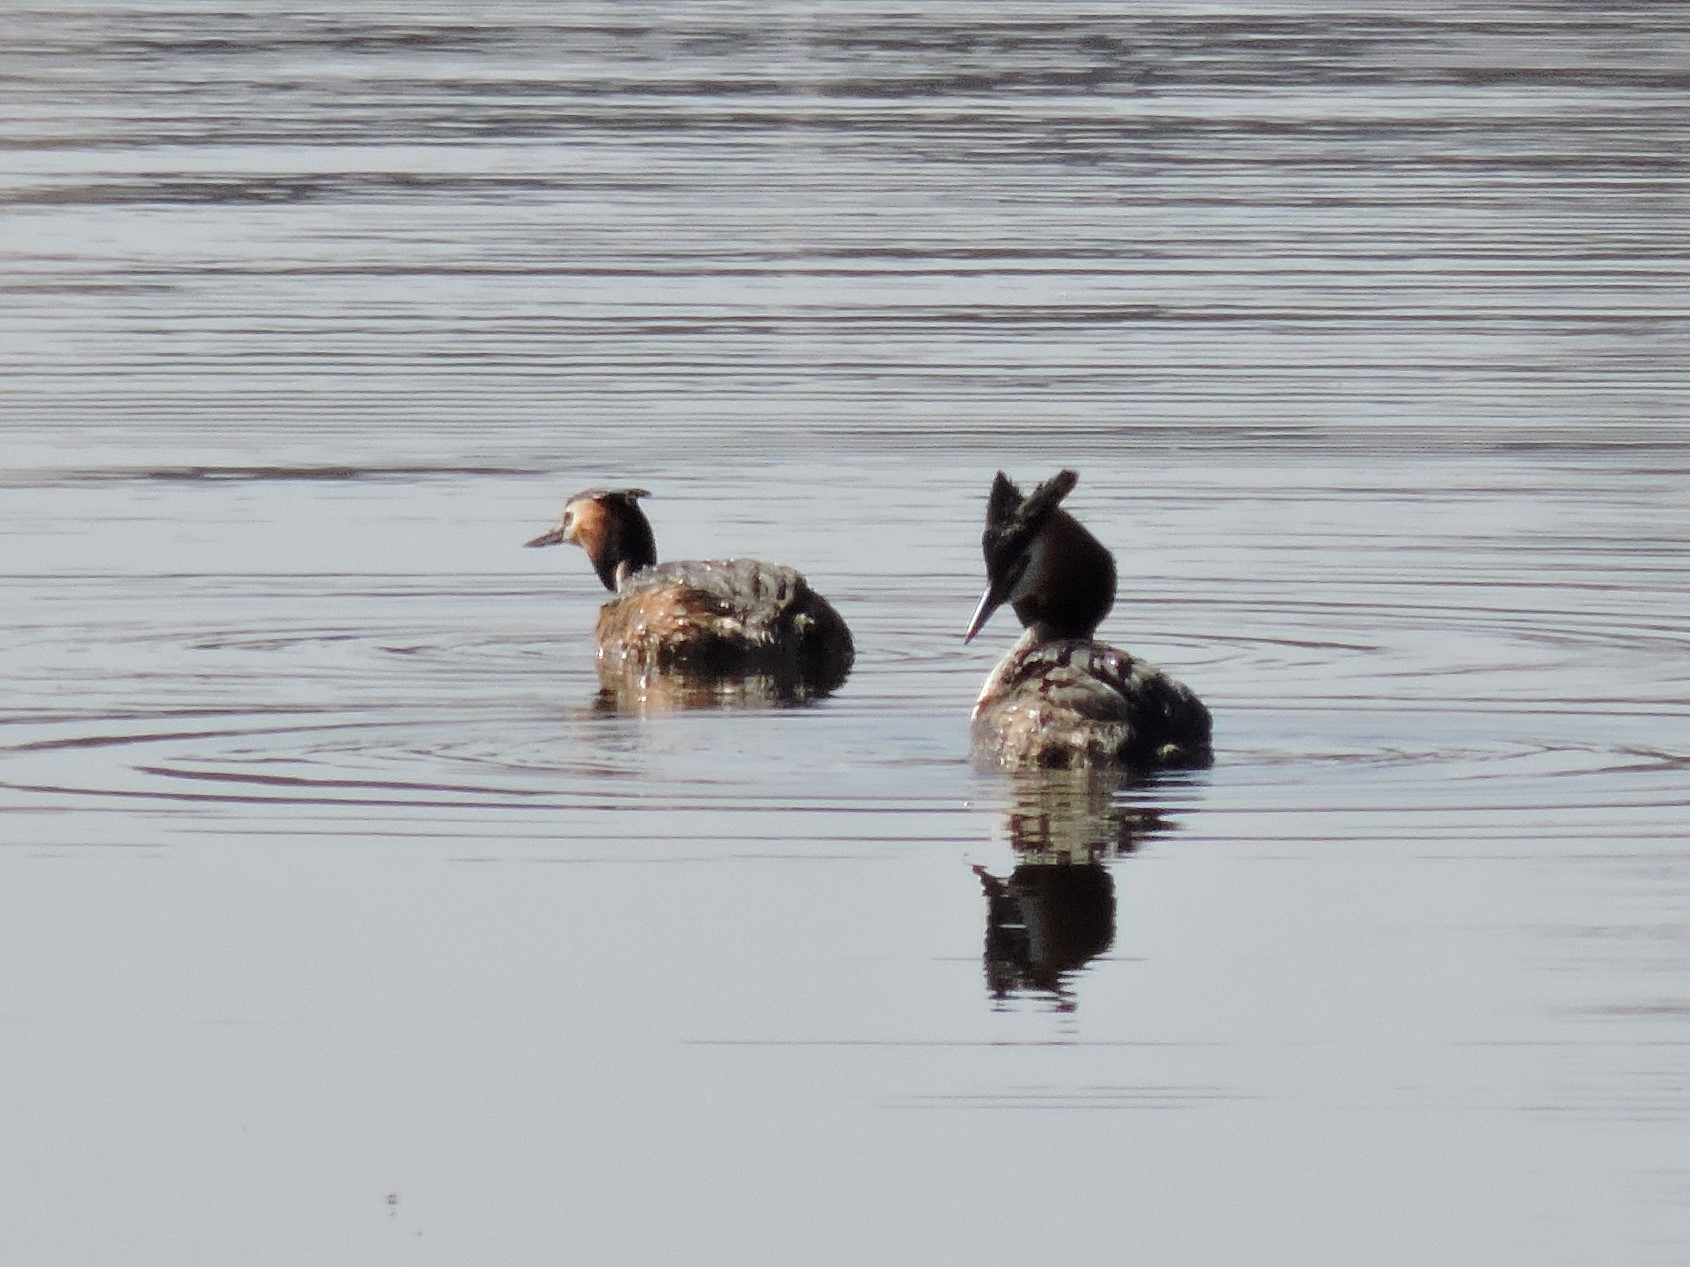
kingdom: Animalia
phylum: Chordata
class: Aves
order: Podicipediformes
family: Podicipedidae
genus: Podiceps
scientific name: Podiceps cristatus
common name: Great crested grebe
